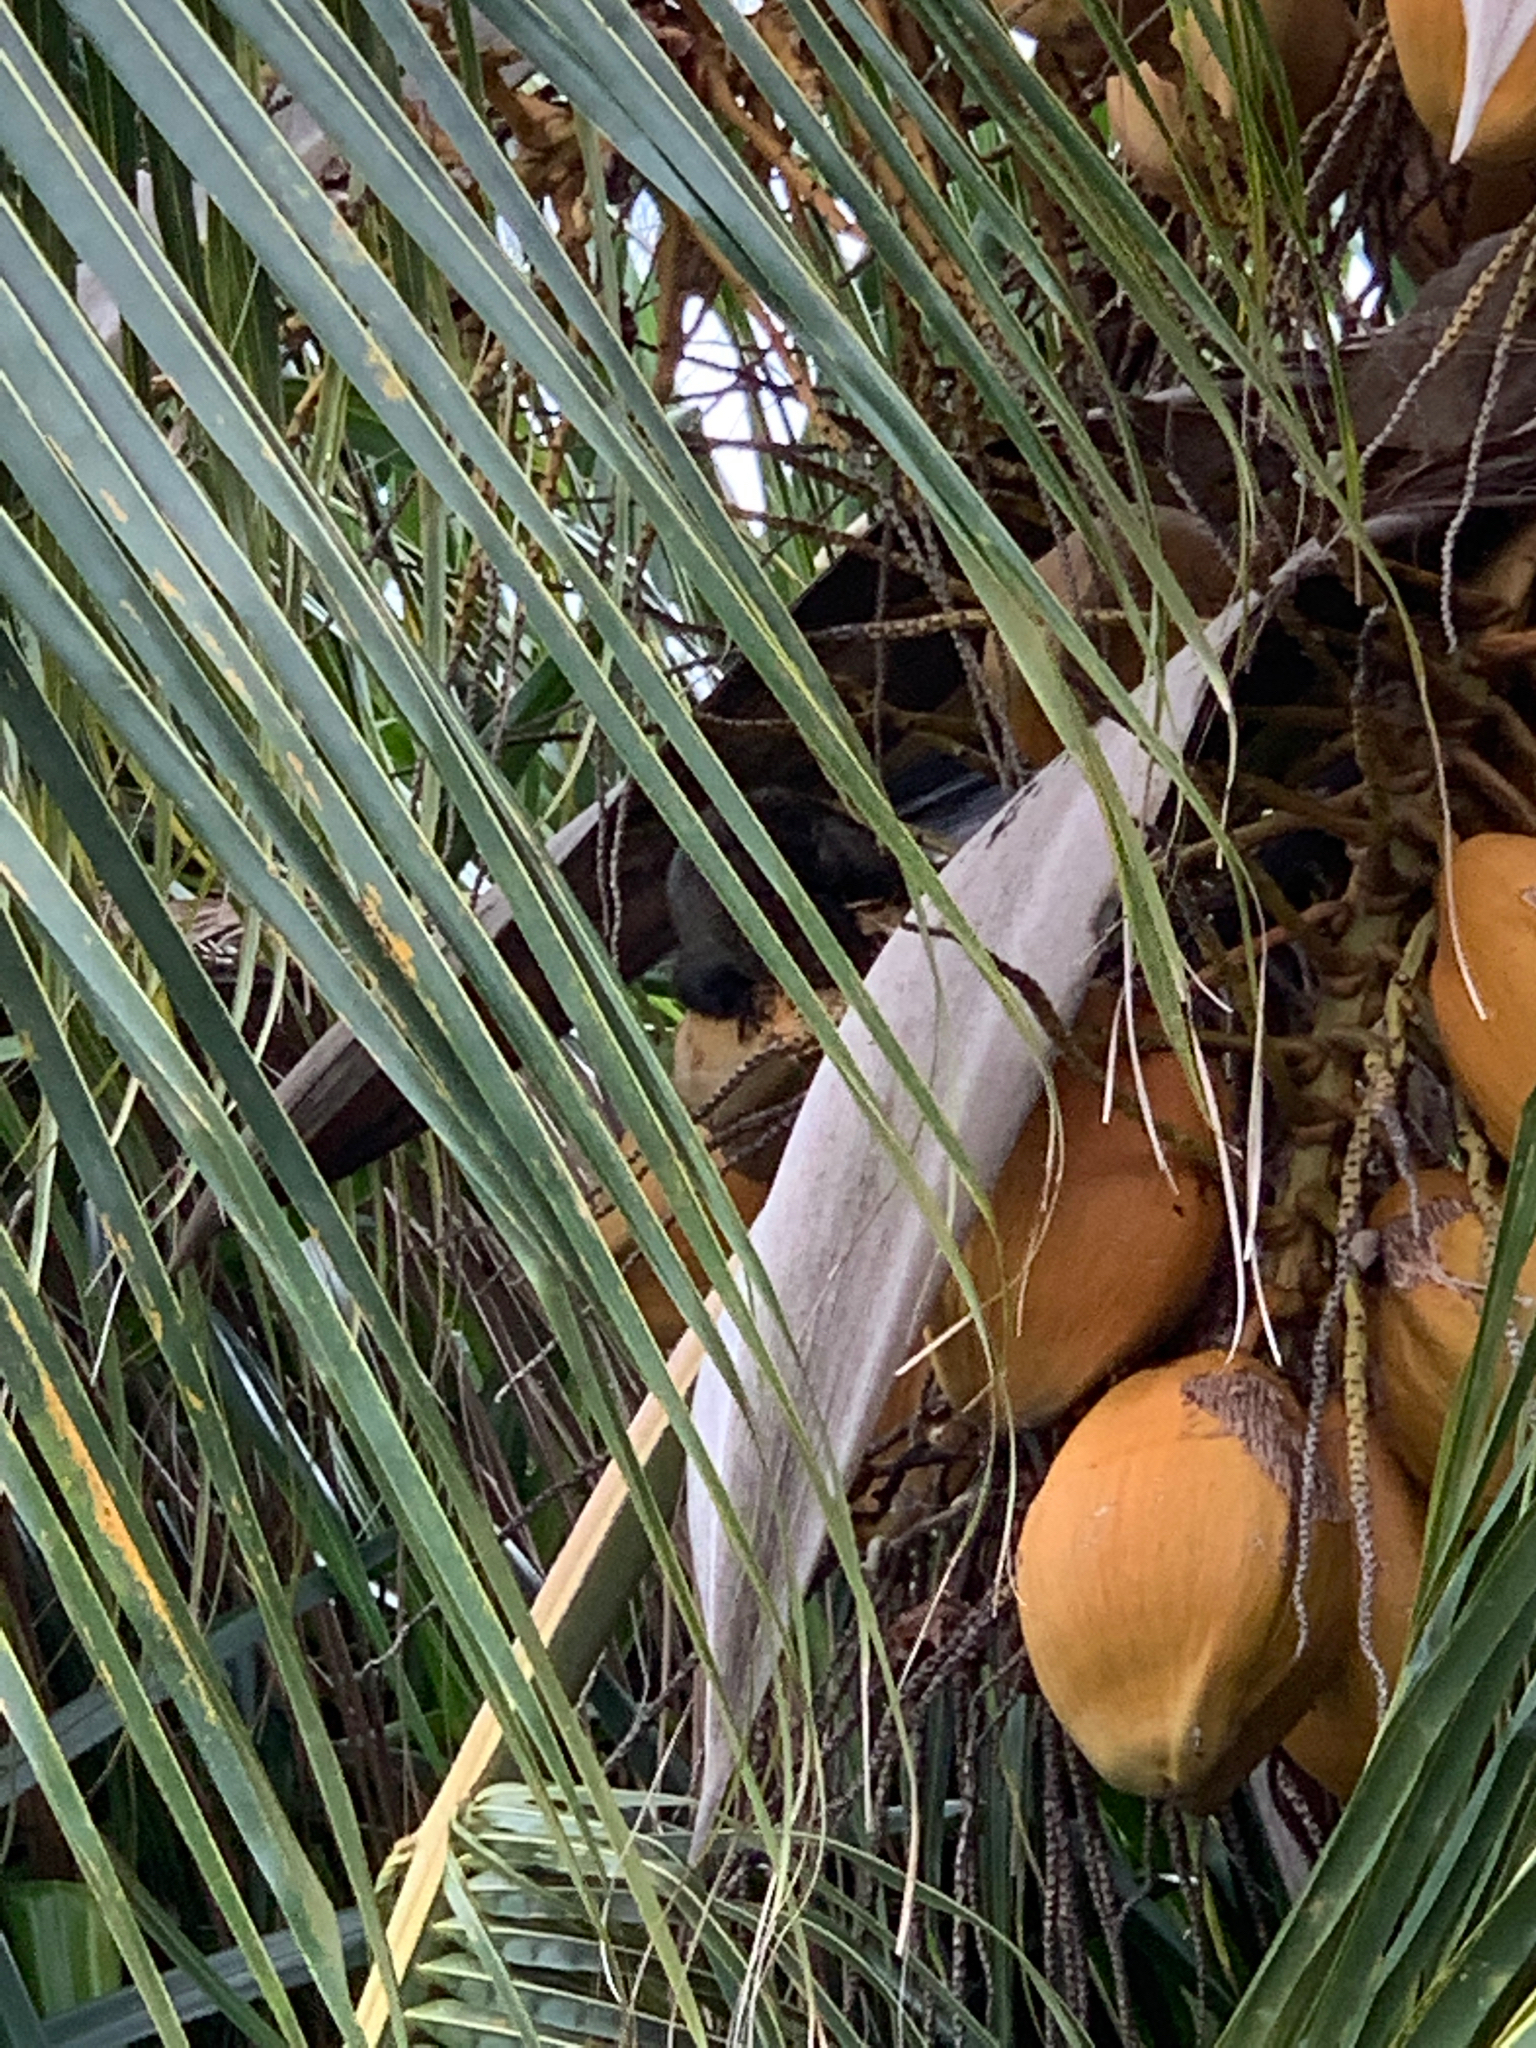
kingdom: Animalia
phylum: Chordata
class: Mammalia
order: Rodentia
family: Sciuridae
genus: Sciurus
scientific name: Sciurus yucatanensis
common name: Yucatan squirrel
